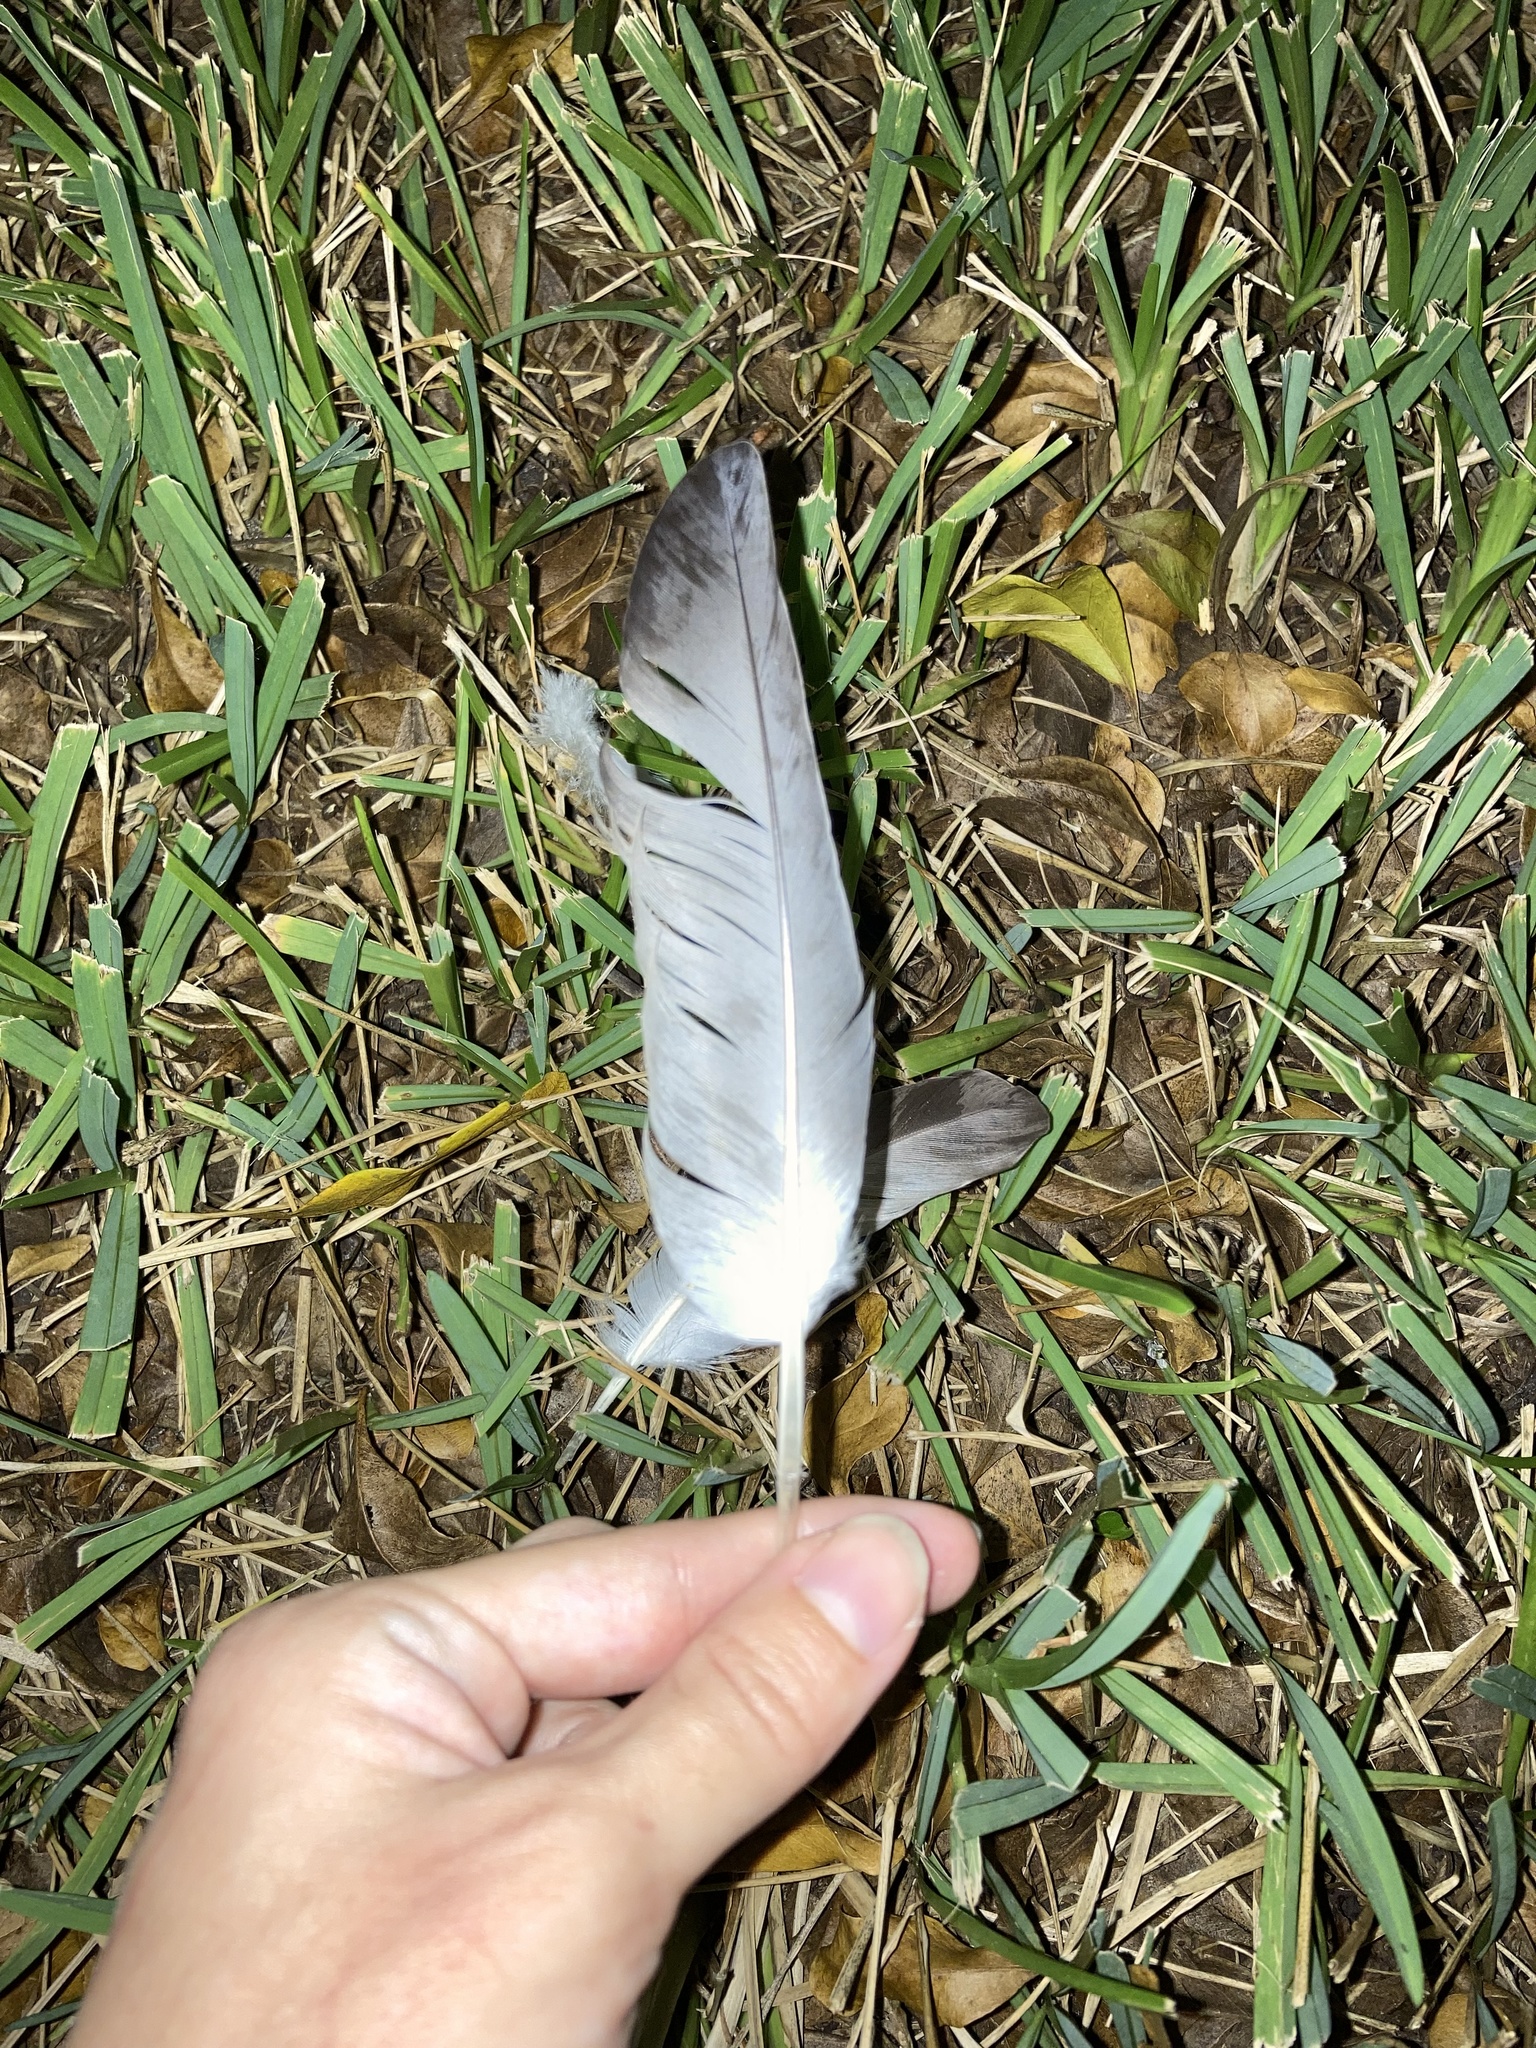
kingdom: Animalia
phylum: Chordata
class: Aves
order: Columbiformes
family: Columbidae
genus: Columba
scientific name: Columba livia
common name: Rock pigeon
